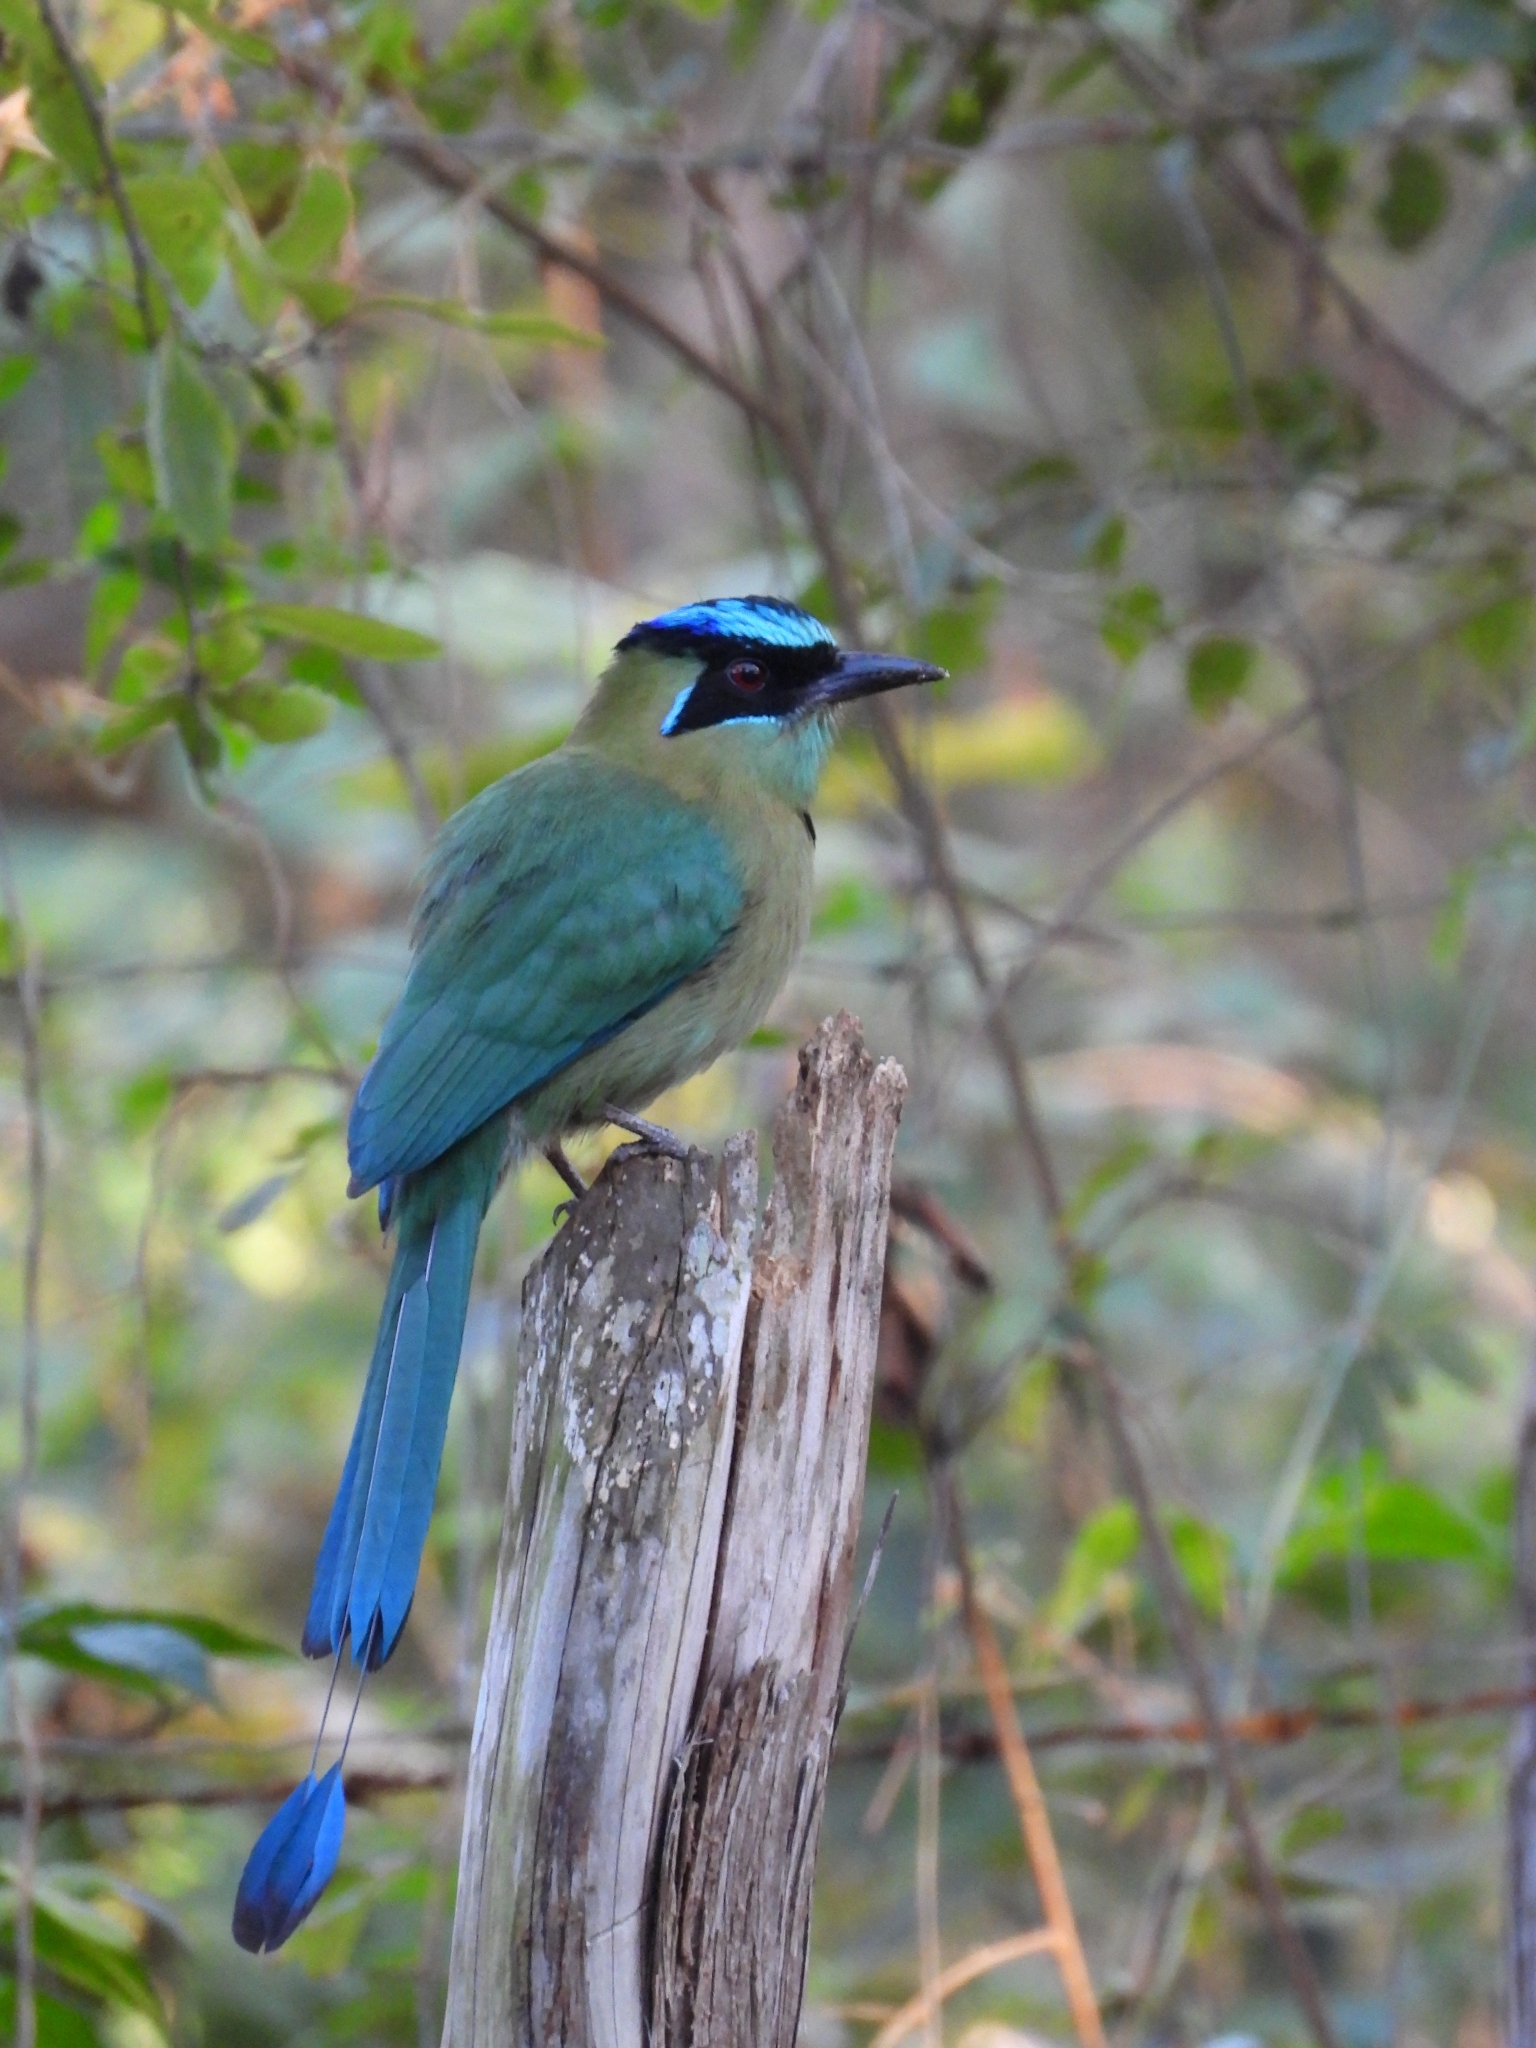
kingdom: Animalia
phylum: Chordata
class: Aves
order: Coraciiformes
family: Momotidae
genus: Momotus
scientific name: Momotus lessonii
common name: Lesson's motmot
